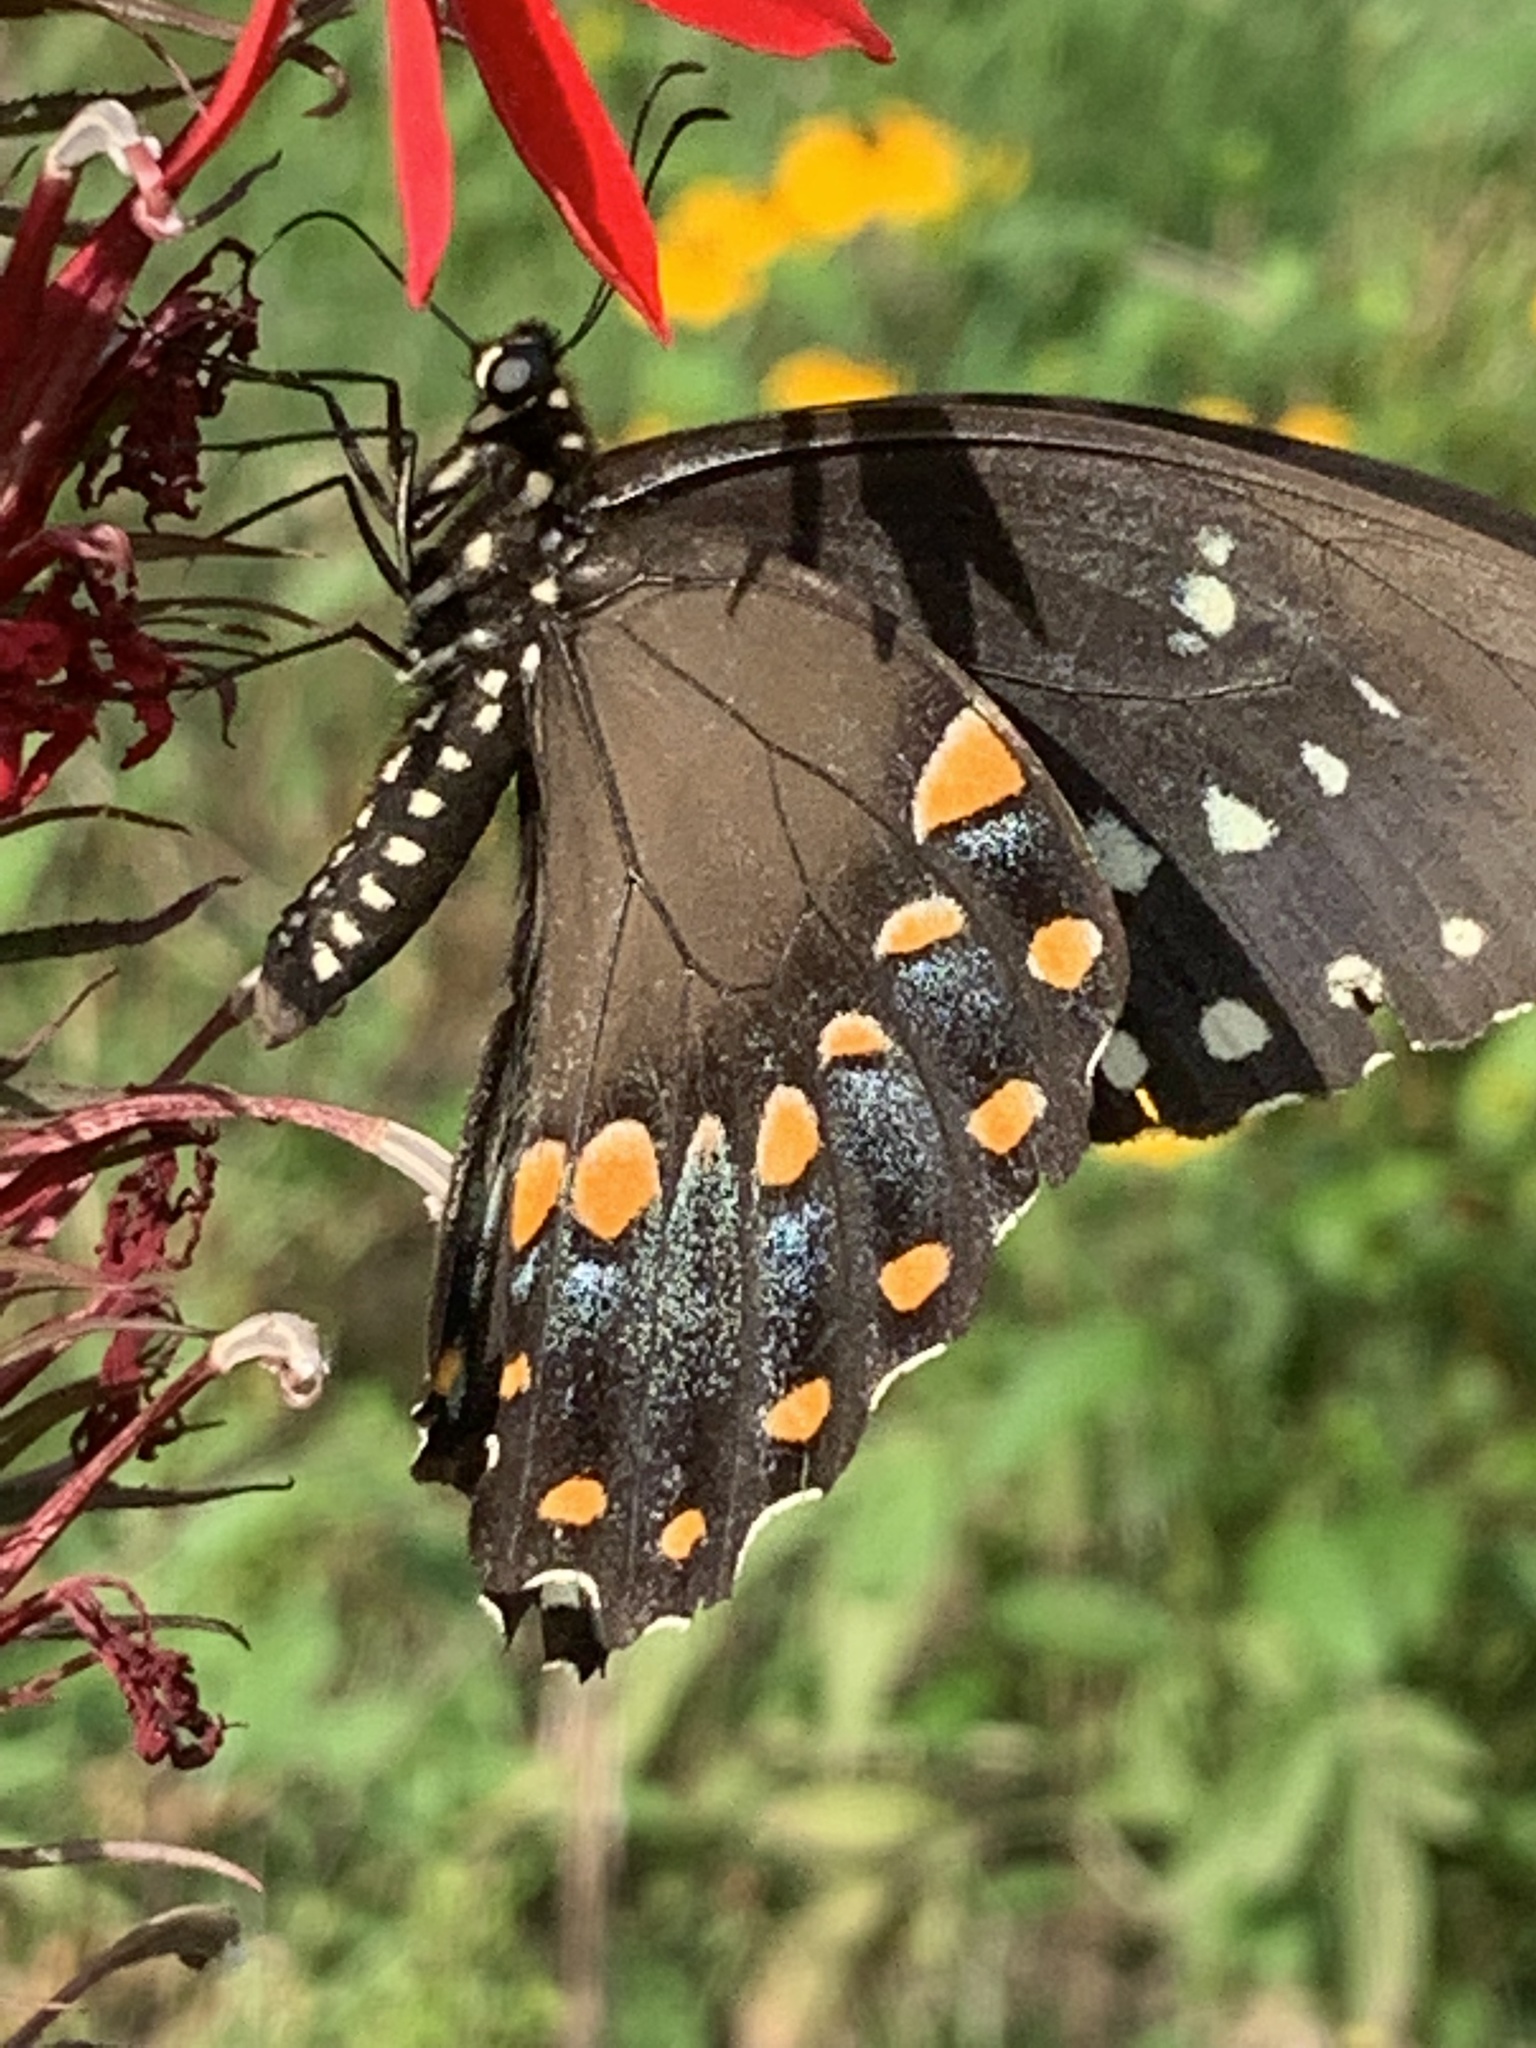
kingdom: Animalia
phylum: Arthropoda
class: Insecta
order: Lepidoptera
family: Papilionidae
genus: Papilio
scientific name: Papilio troilus
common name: Spicebush swallowtail
